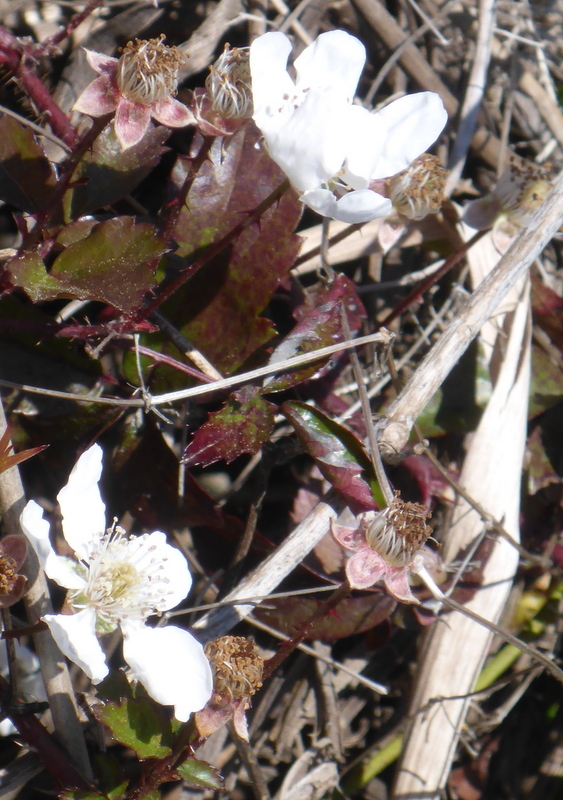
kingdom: Plantae
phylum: Tracheophyta
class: Magnoliopsida
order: Rosales
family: Rosaceae
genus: Rubus
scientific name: Rubus trivialis
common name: Southern dewberry
